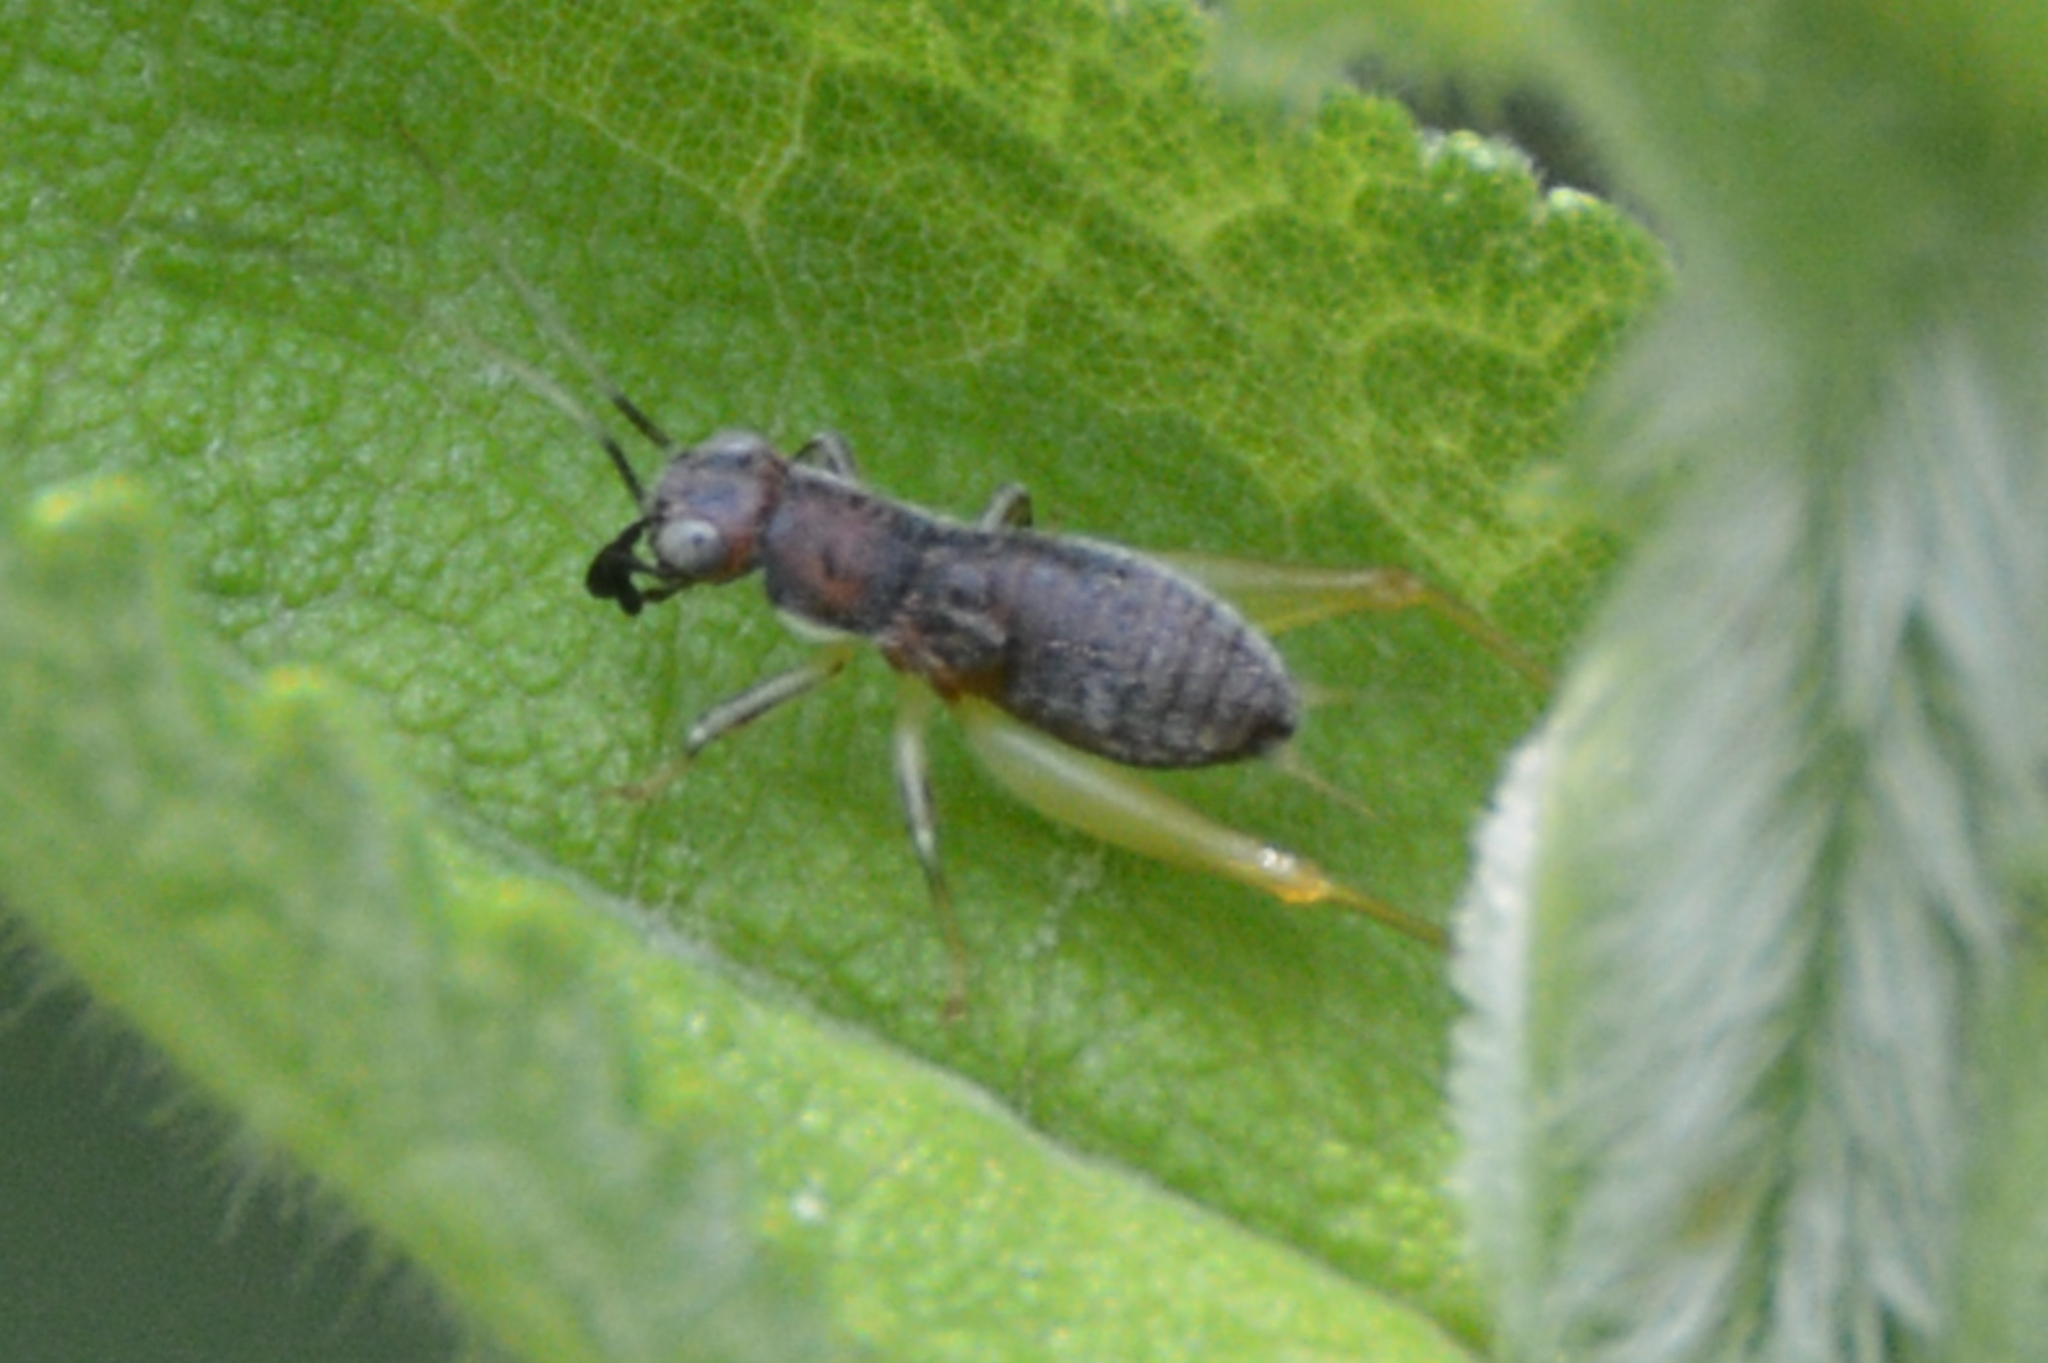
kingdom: Animalia
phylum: Arthropoda
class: Insecta
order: Orthoptera
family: Trigonidiidae
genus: Phyllopalpus
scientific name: Phyllopalpus pulchellus
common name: Handsome trig
